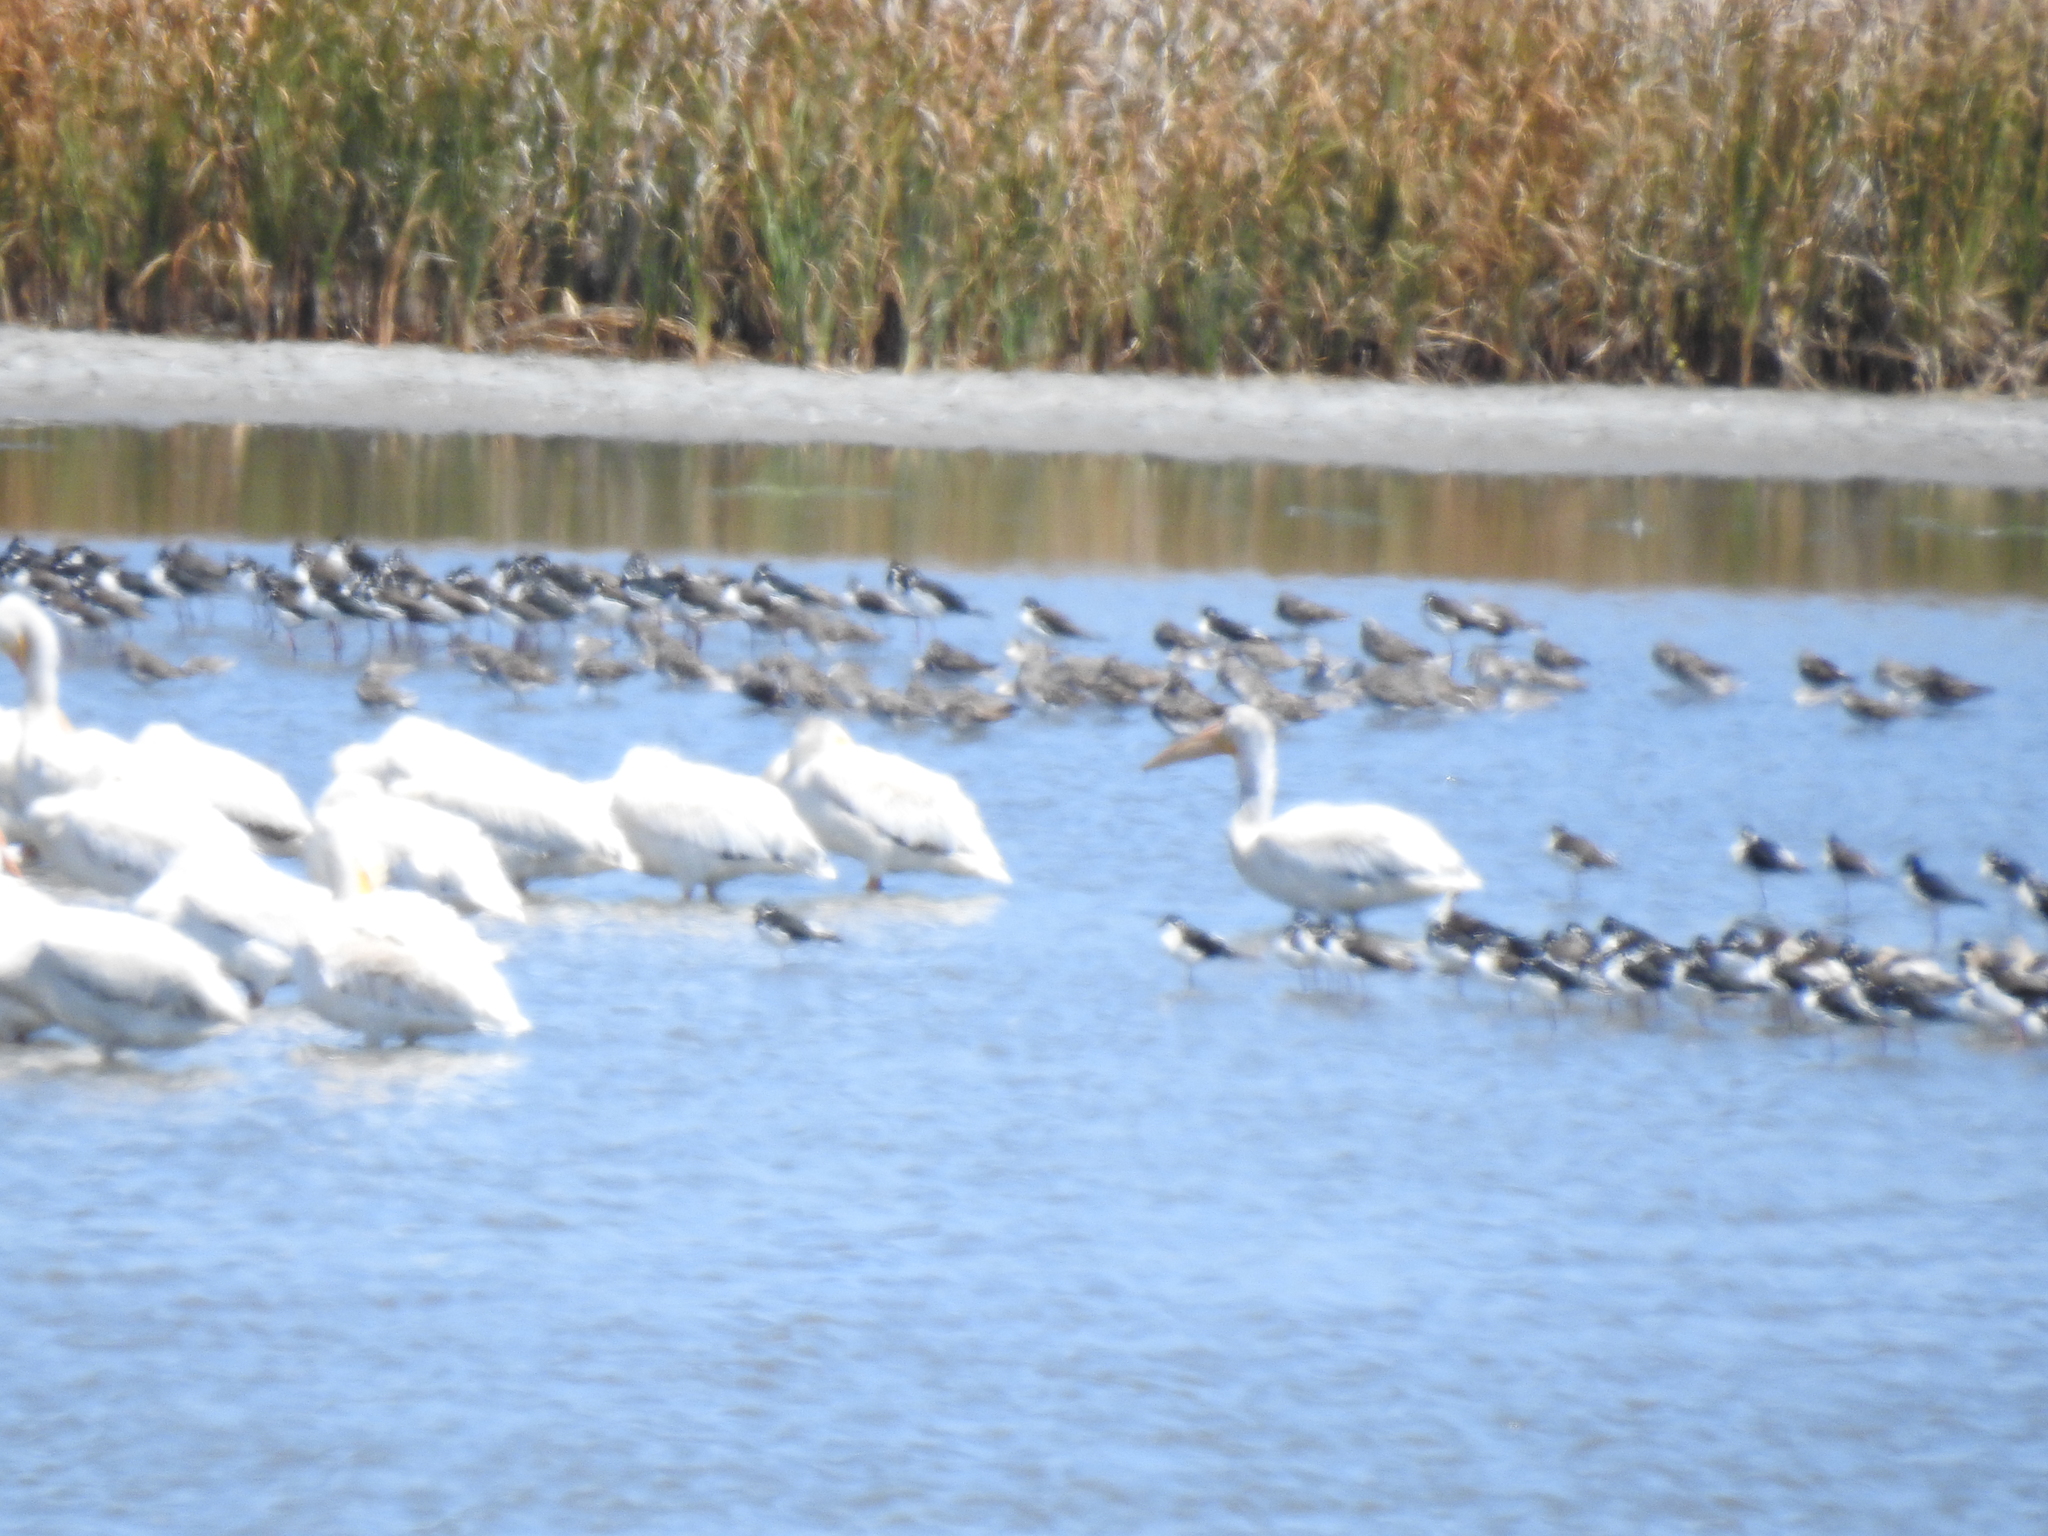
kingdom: Animalia
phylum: Chordata
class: Aves
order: Pelecaniformes
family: Pelecanidae
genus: Pelecanus
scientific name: Pelecanus erythrorhynchos
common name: American white pelican
